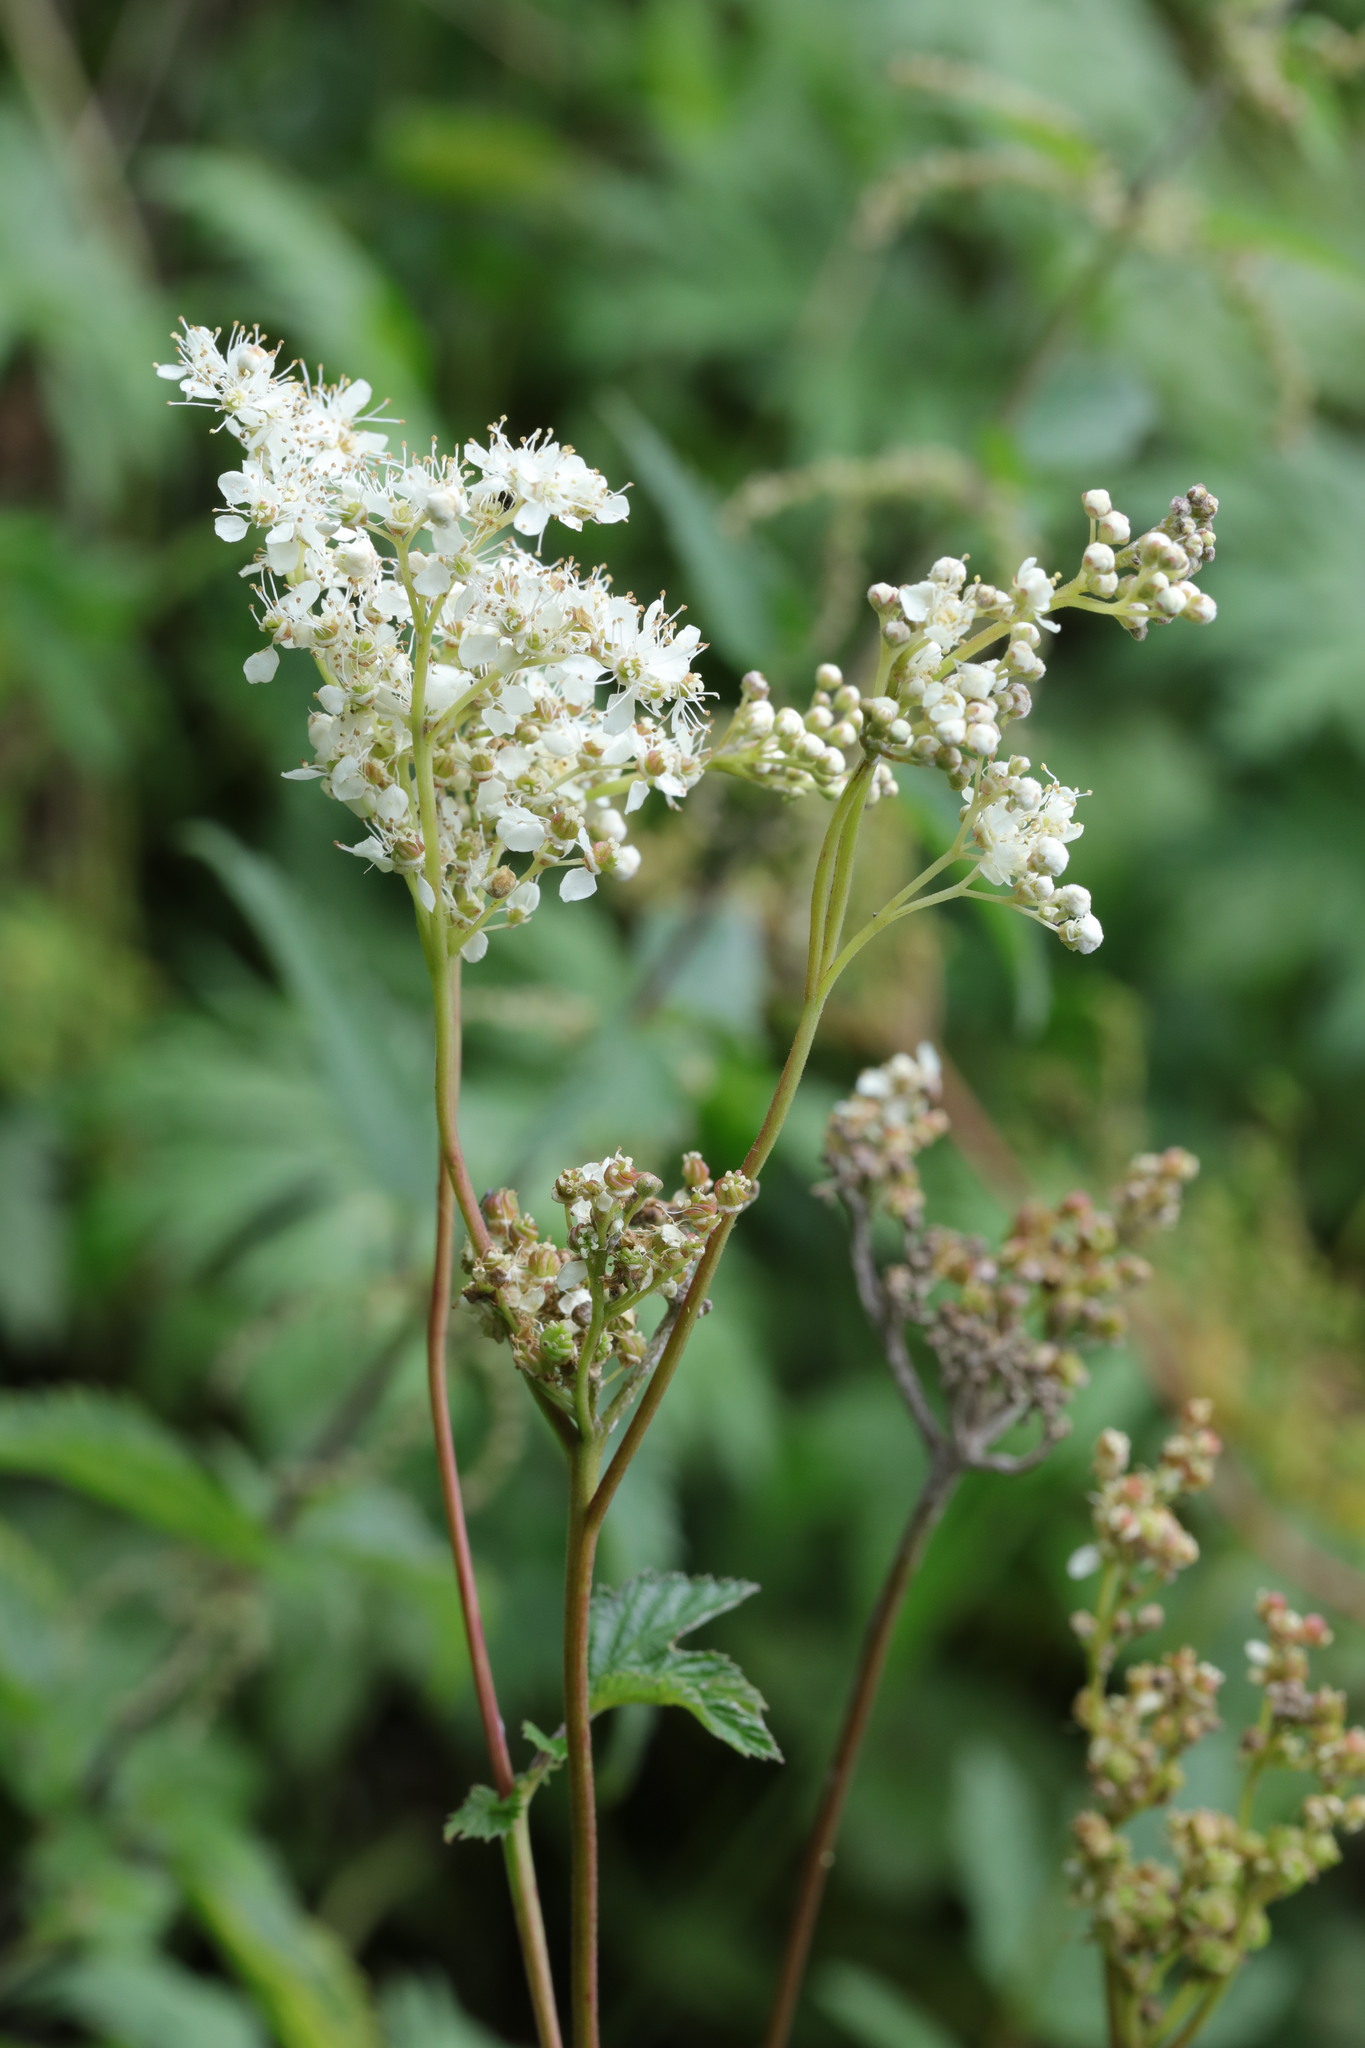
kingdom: Plantae
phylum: Tracheophyta
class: Magnoliopsida
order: Rosales
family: Rosaceae
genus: Filipendula
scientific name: Filipendula ulmaria
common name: Meadowsweet
